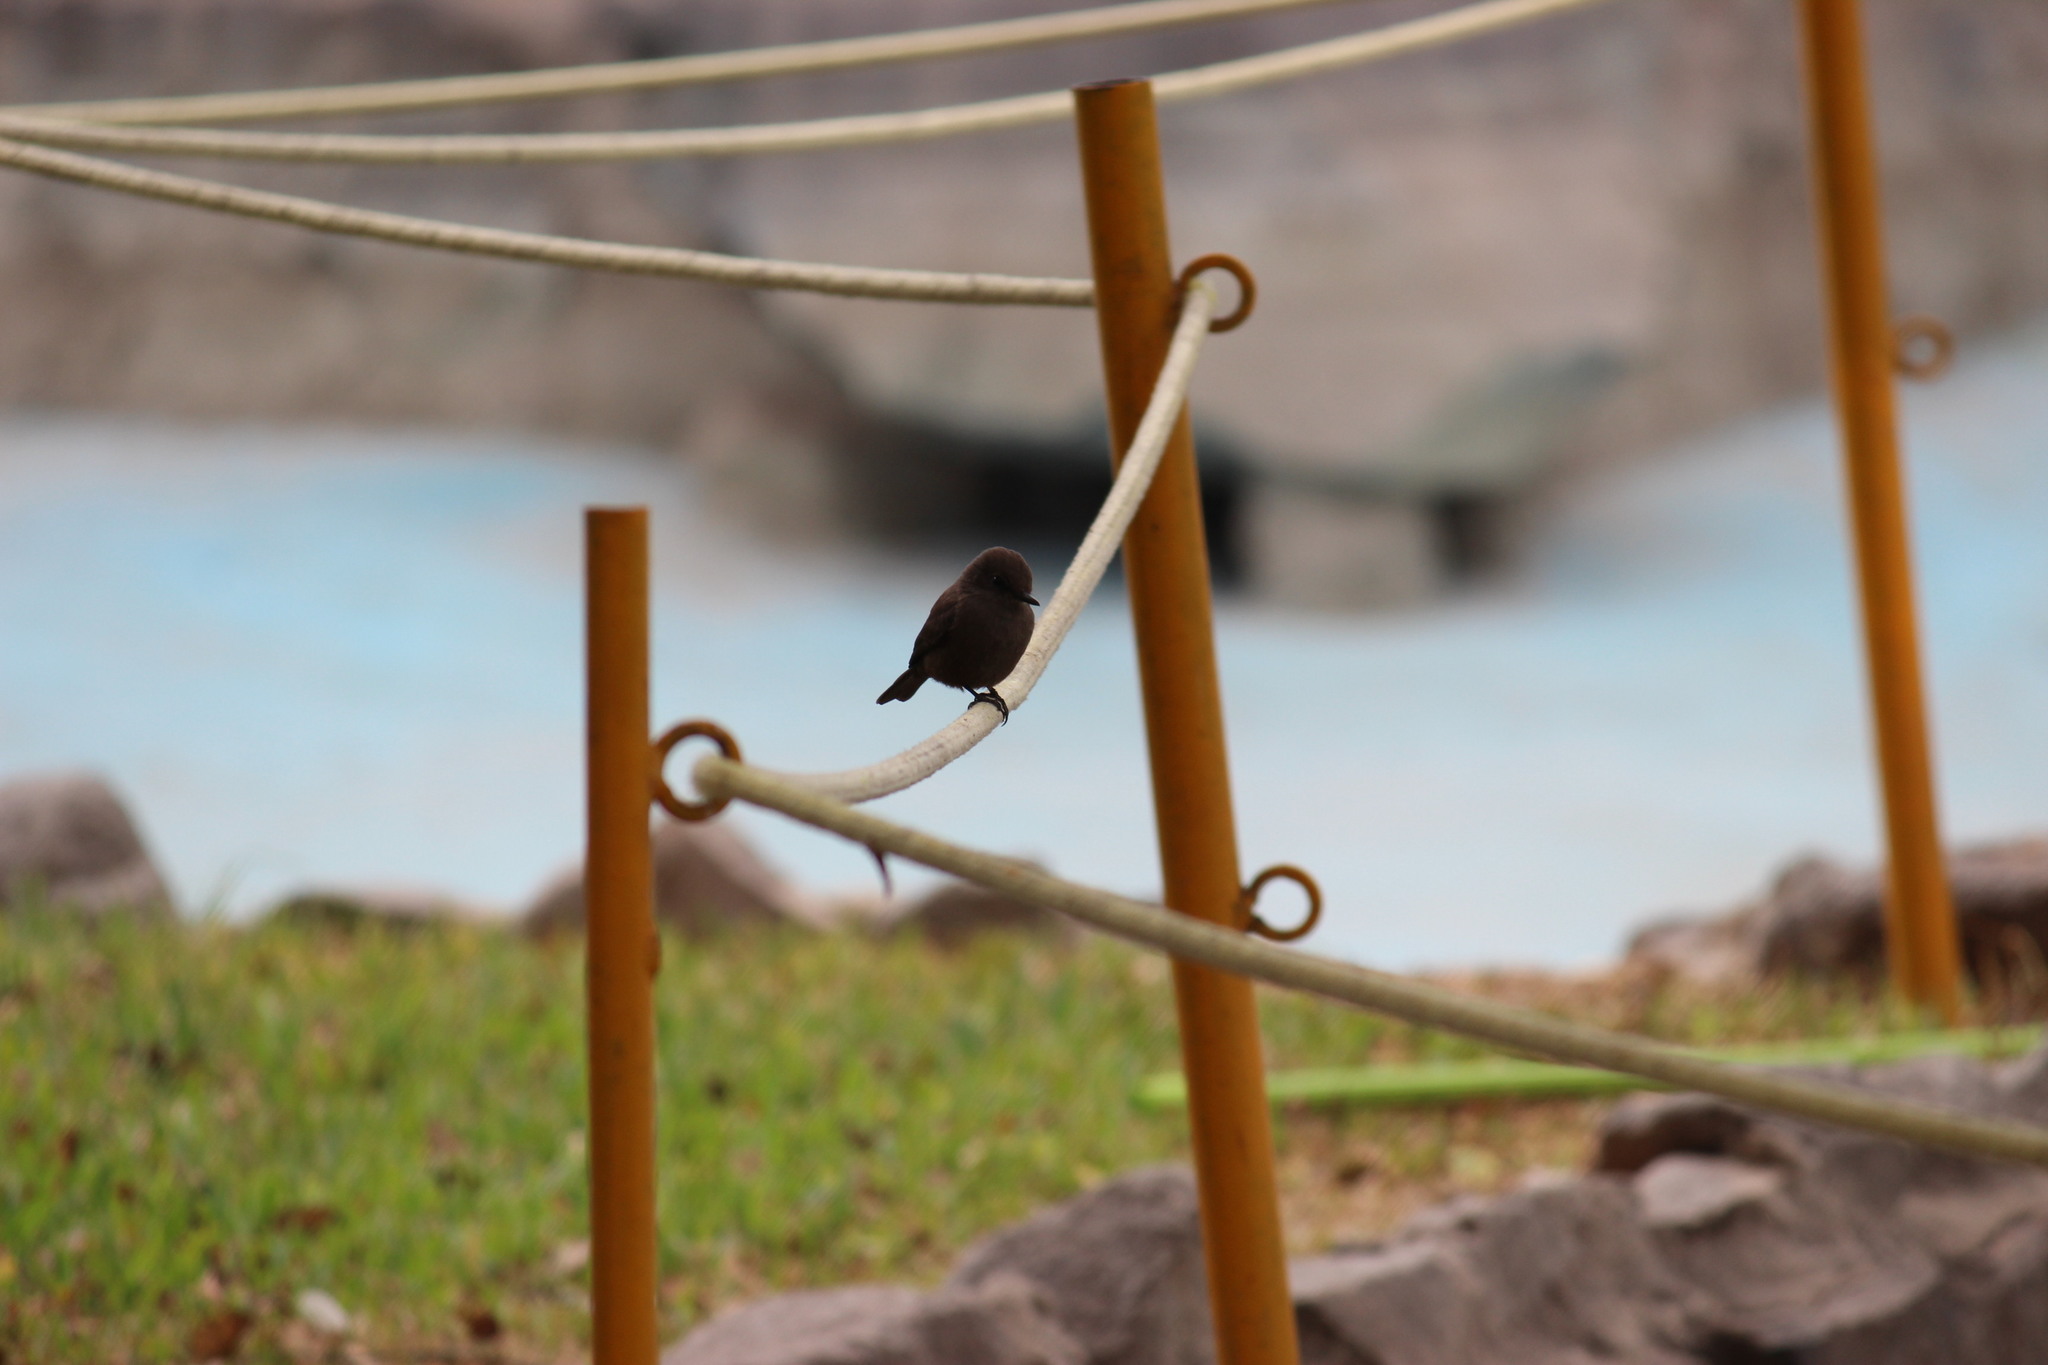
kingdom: Animalia
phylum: Chordata
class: Aves
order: Passeriformes
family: Tyrannidae
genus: Pyrocephalus
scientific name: Pyrocephalus rubinus
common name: Vermilion flycatcher
